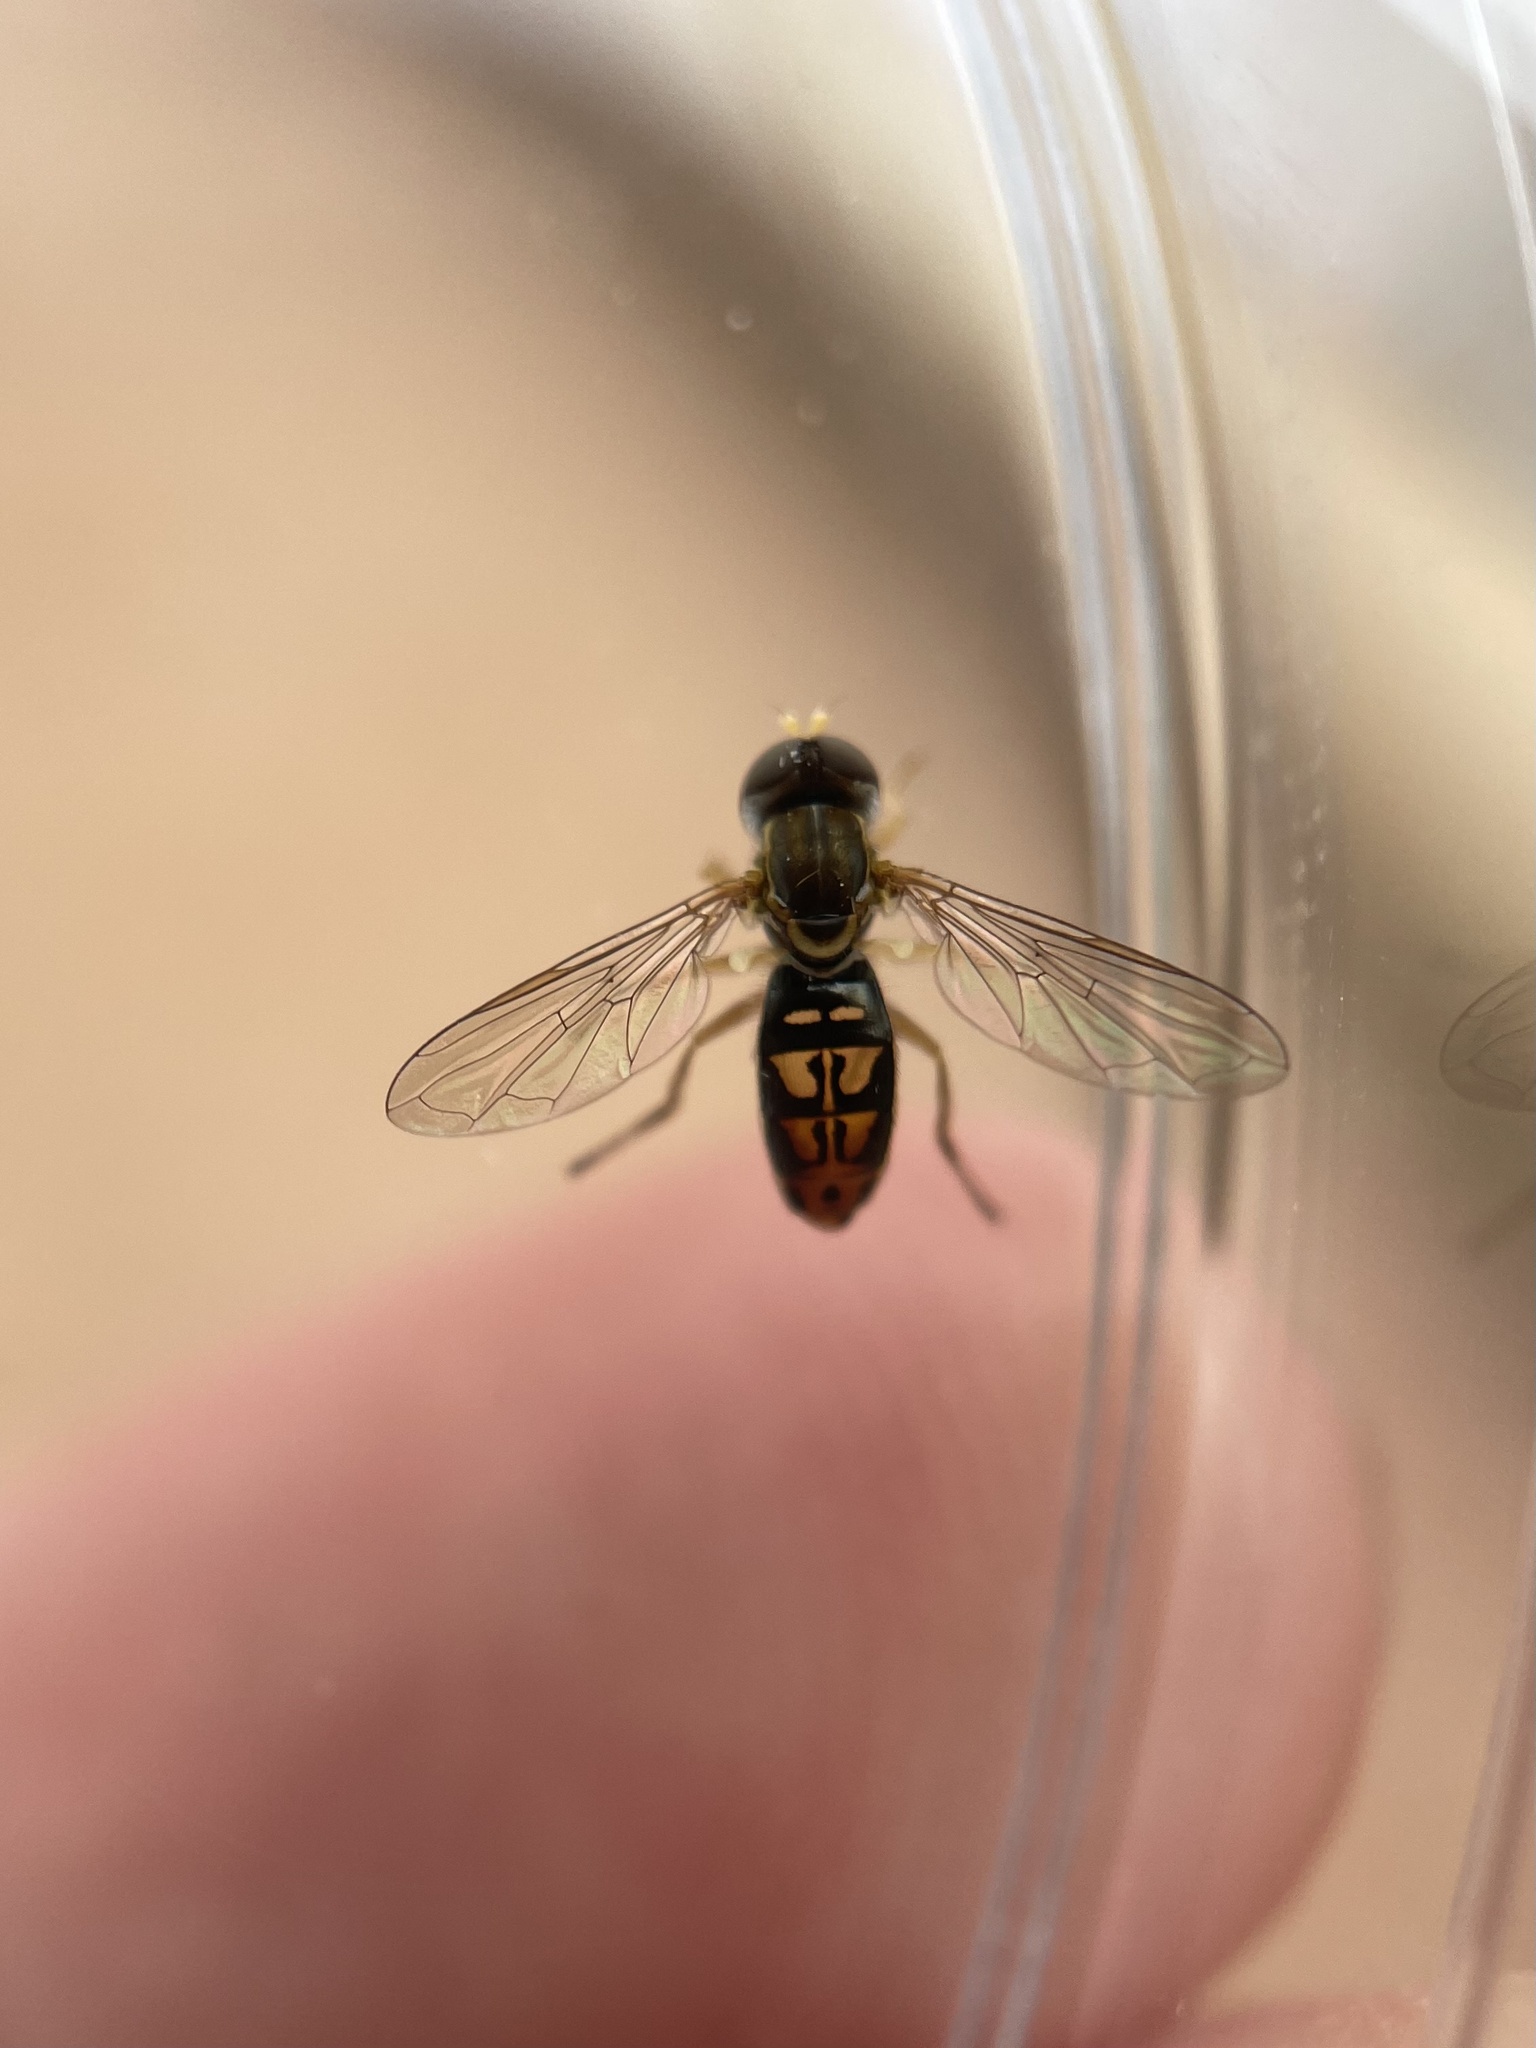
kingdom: Animalia
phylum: Arthropoda
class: Insecta
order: Diptera
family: Syrphidae
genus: Toxomerus
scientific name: Toxomerus marginatus
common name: Syrphid fly
